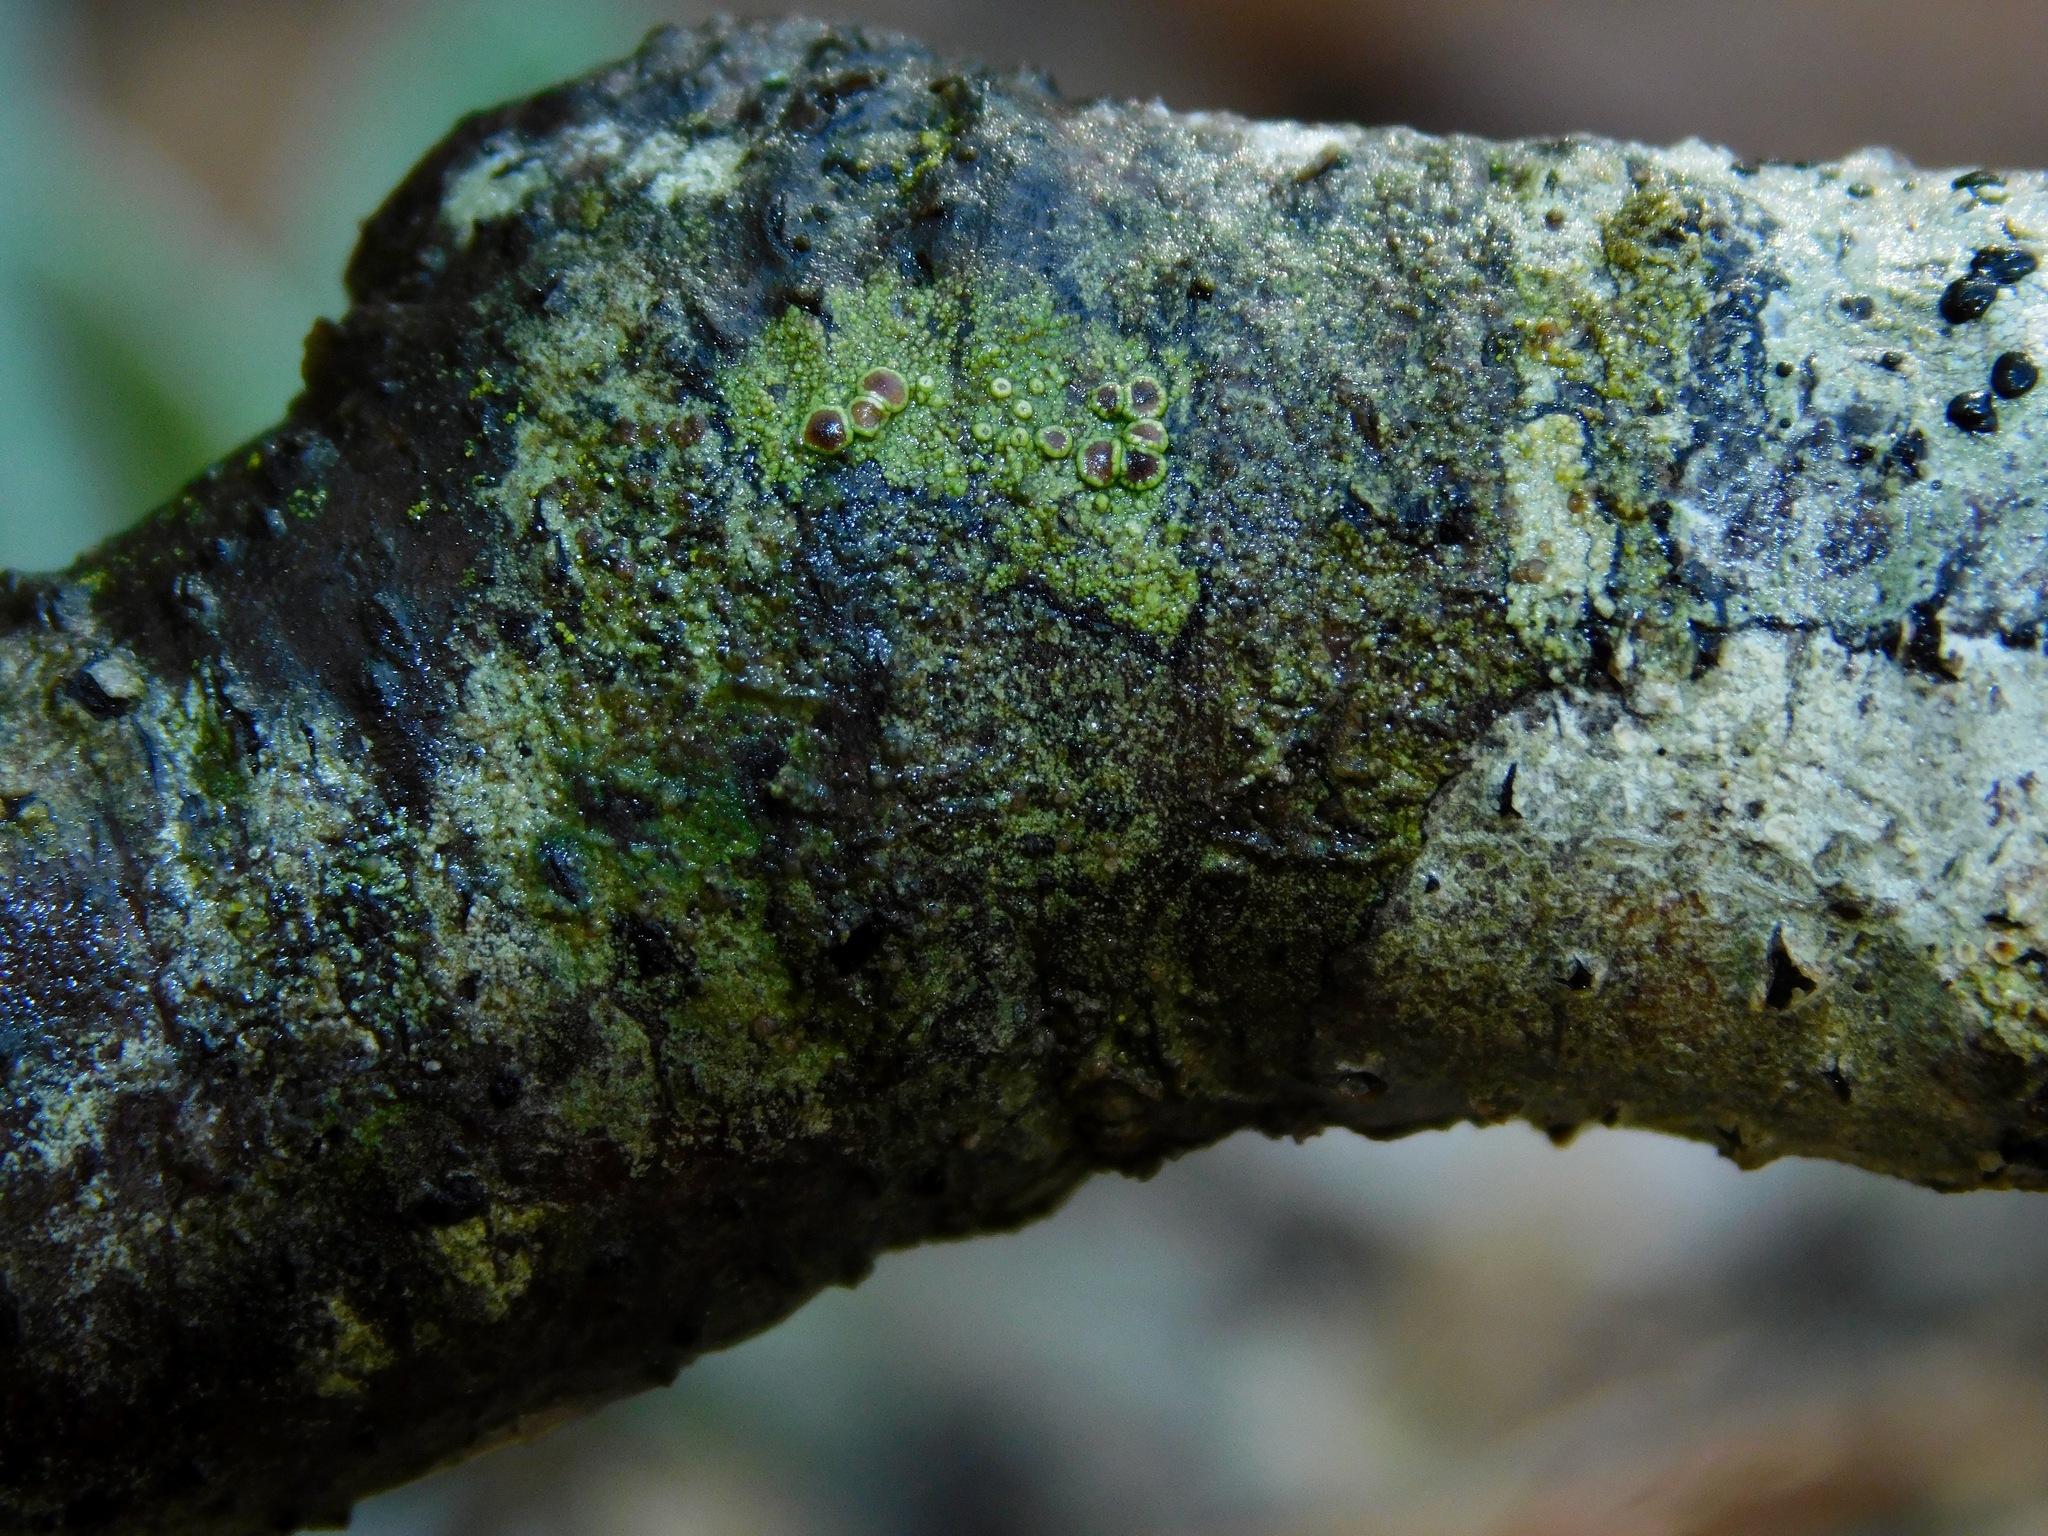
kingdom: Fungi
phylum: Ascomycota
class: Lecanoromycetes
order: Umbilicariales
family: Fuscideaceae
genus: Maronea
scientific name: Maronea polyphaea
